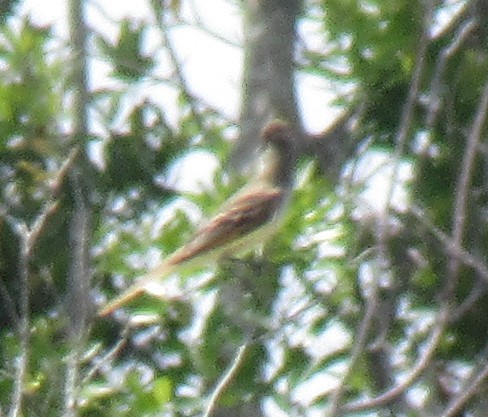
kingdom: Animalia
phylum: Chordata
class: Aves
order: Passeriformes
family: Tyrannidae
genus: Myiarchus
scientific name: Myiarchus crinitus
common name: Great crested flycatcher
